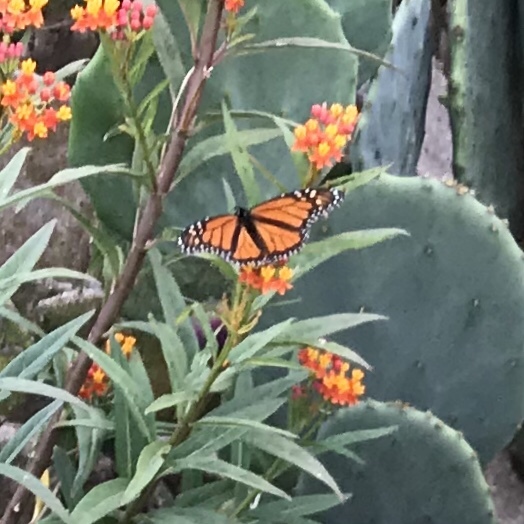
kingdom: Animalia
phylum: Arthropoda
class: Insecta
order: Lepidoptera
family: Nymphalidae
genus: Danaus
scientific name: Danaus plexippus
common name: Monarch
